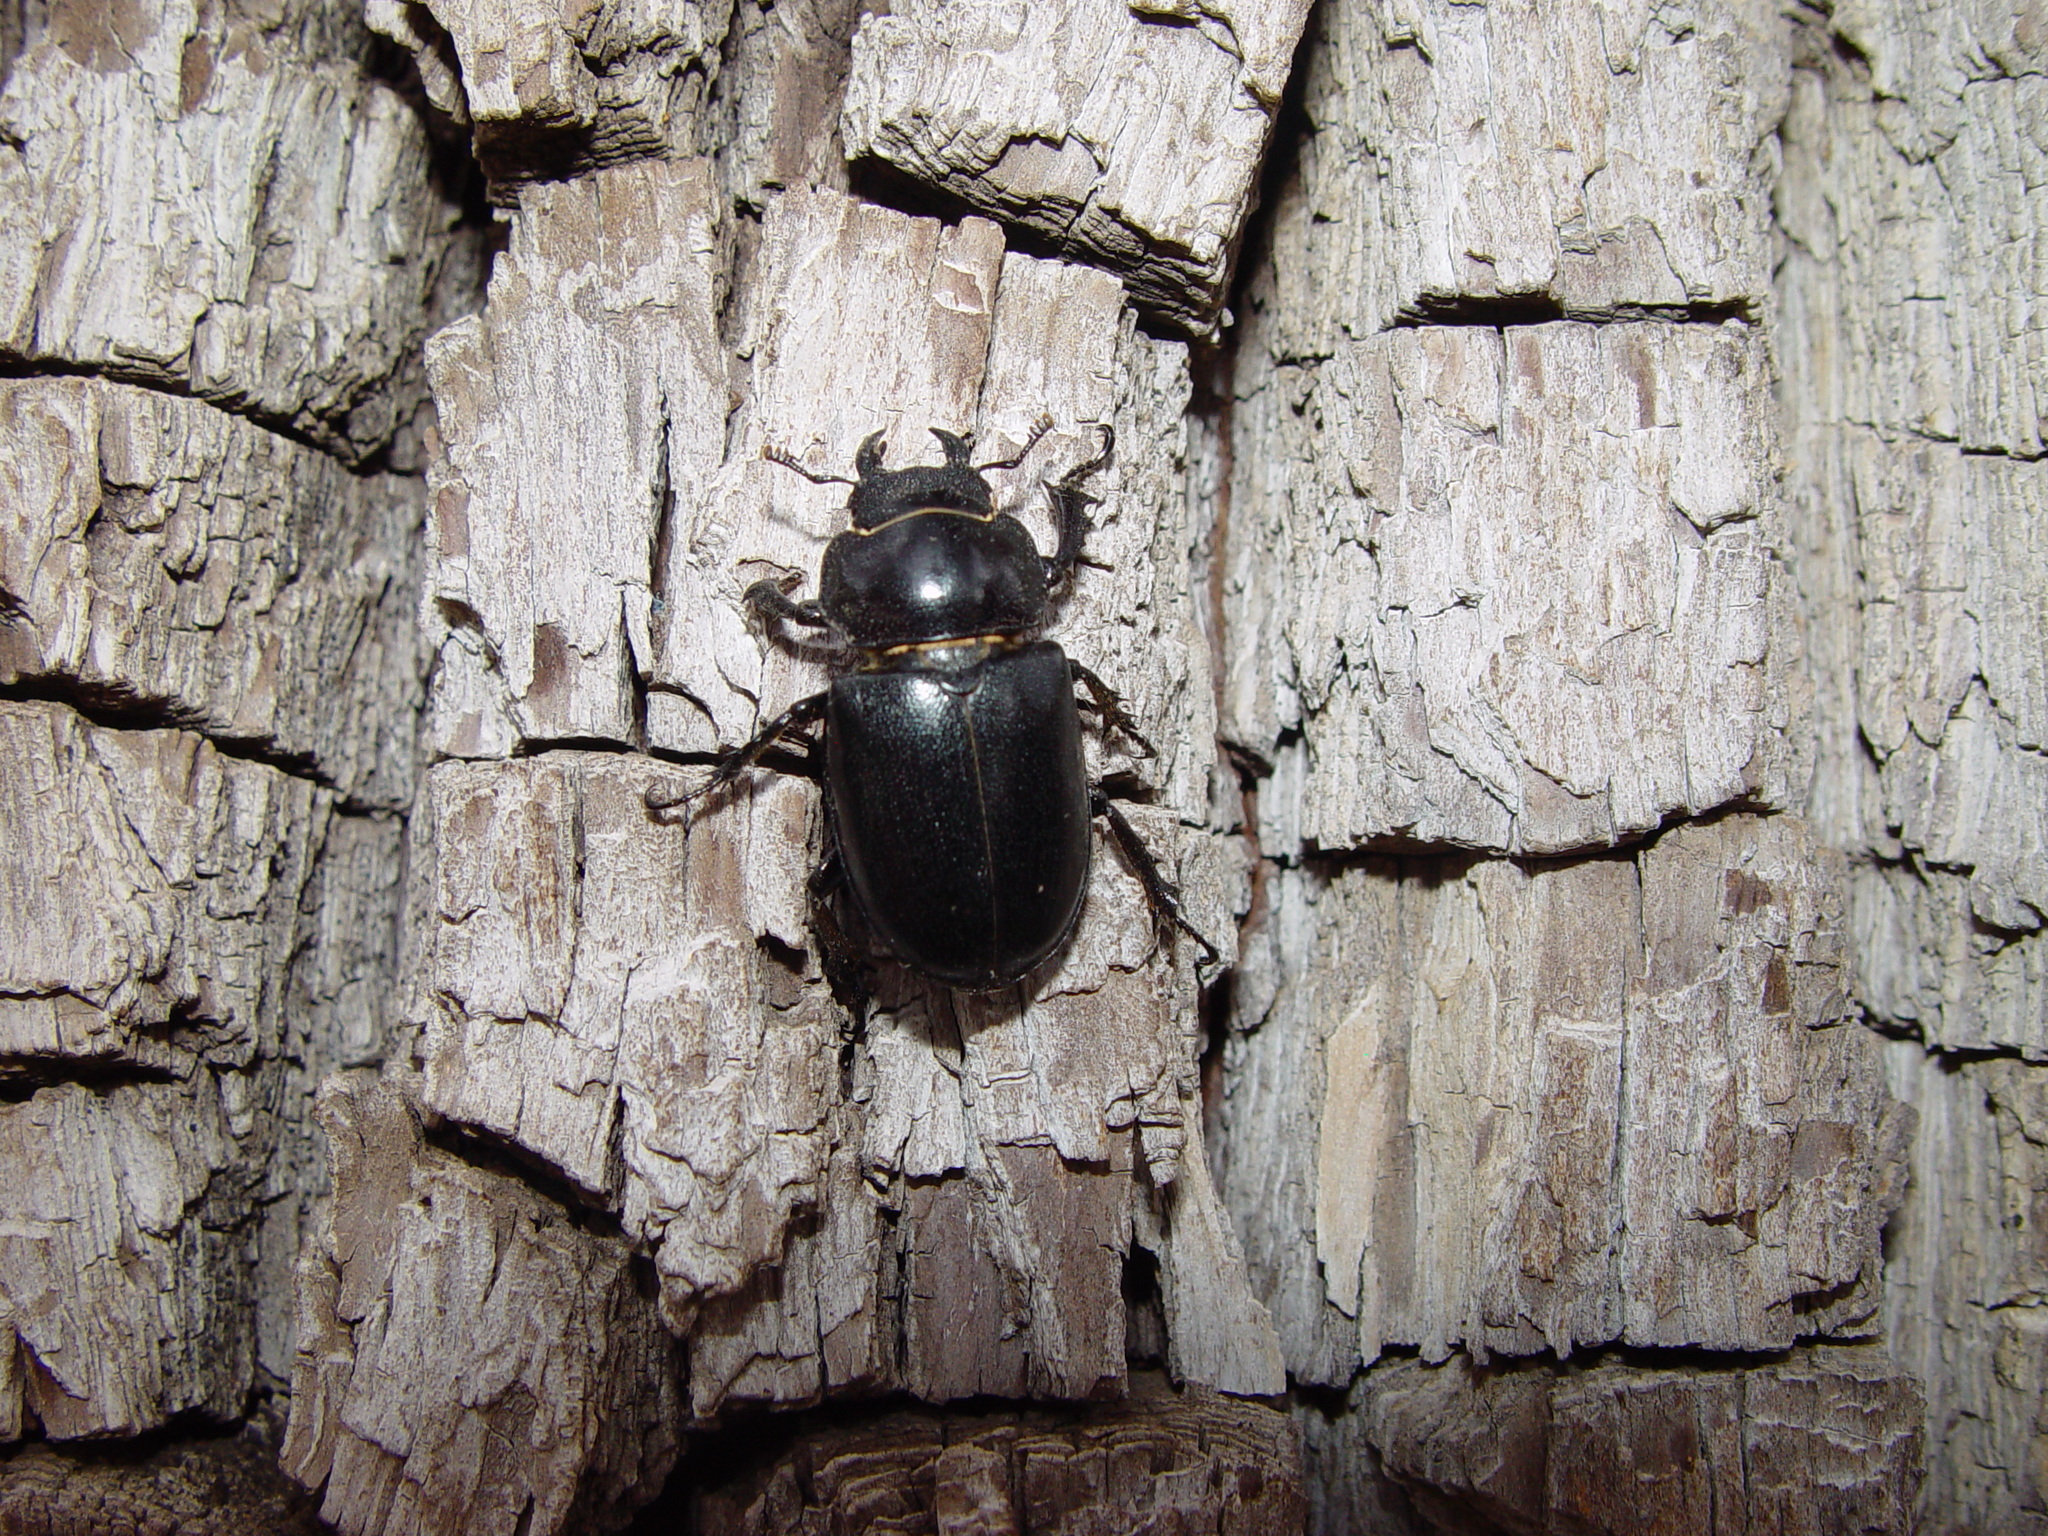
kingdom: Animalia
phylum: Arthropoda
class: Insecta
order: Coleoptera
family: Lucanidae
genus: Lucanus
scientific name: Lucanus mazama
